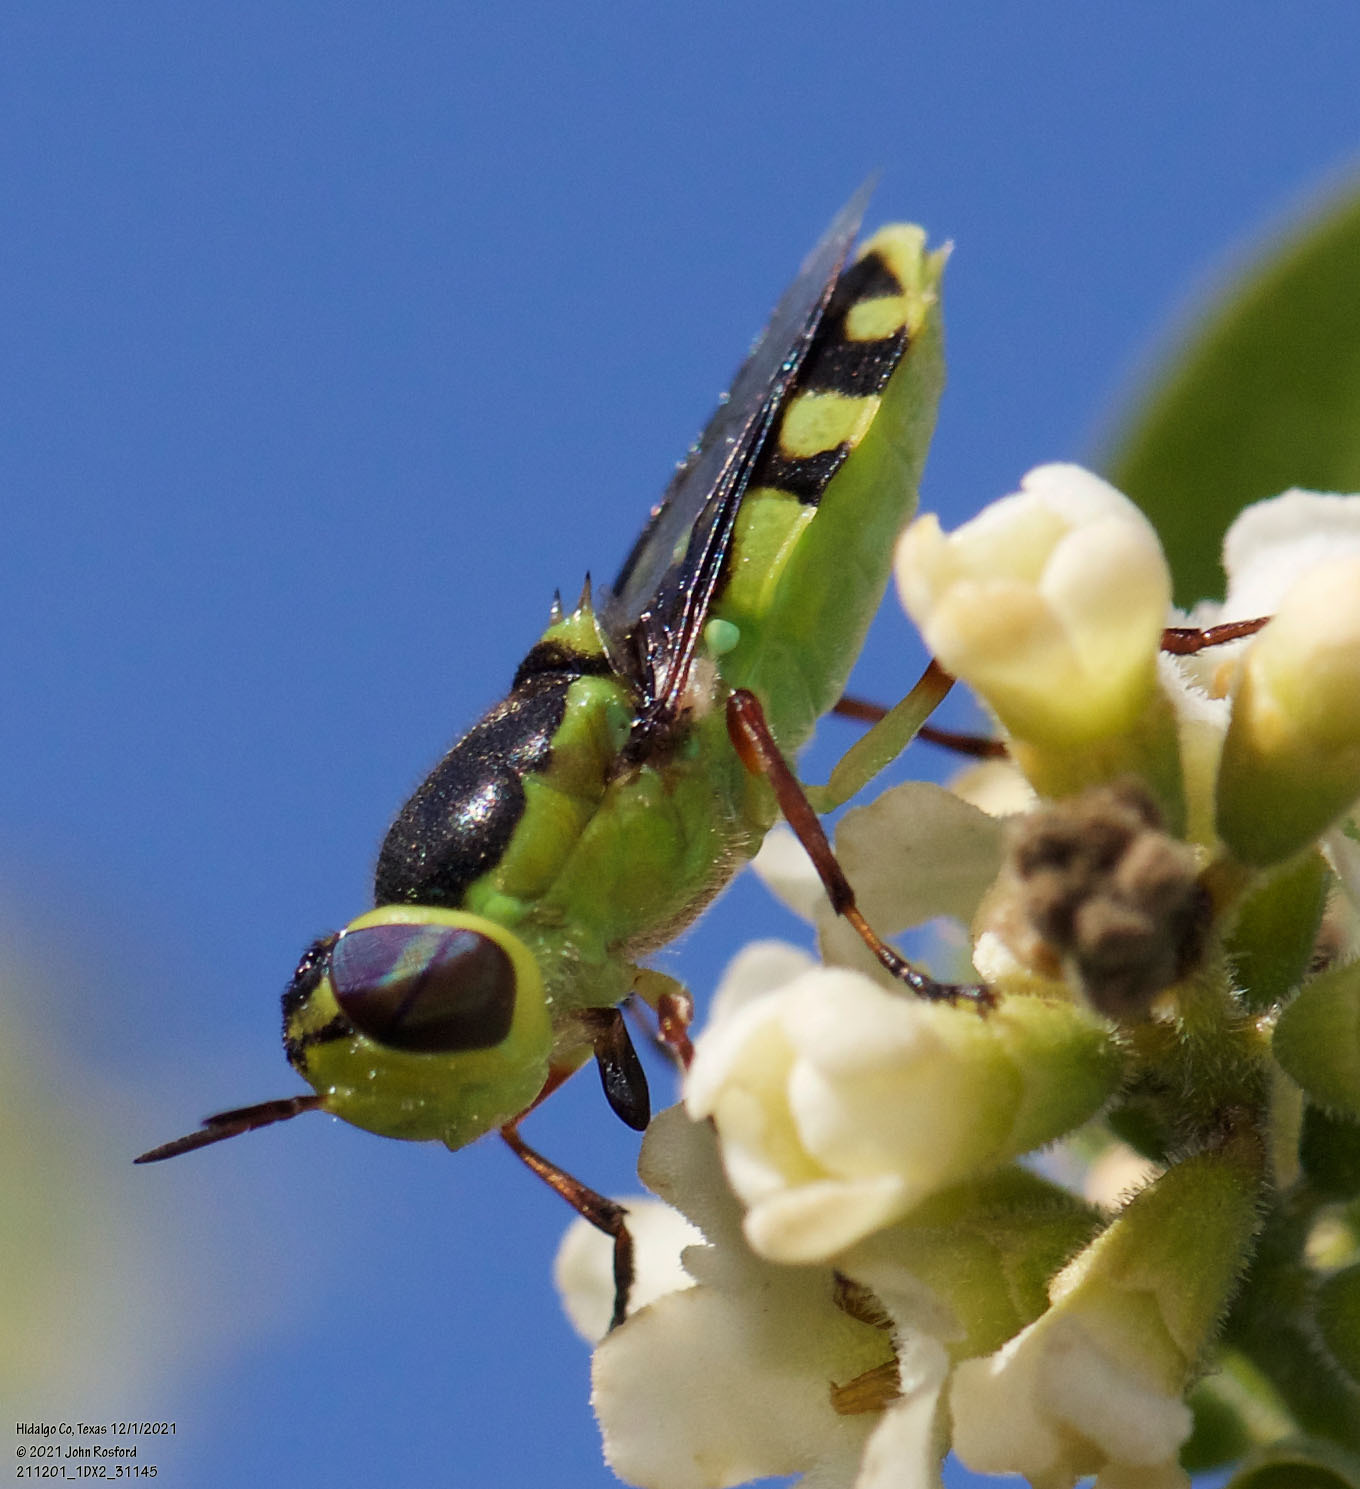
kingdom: Animalia
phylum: Arthropoda
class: Insecta
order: Diptera
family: Stratiomyidae
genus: Hedriodiscus
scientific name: Hedriodiscus truquii
